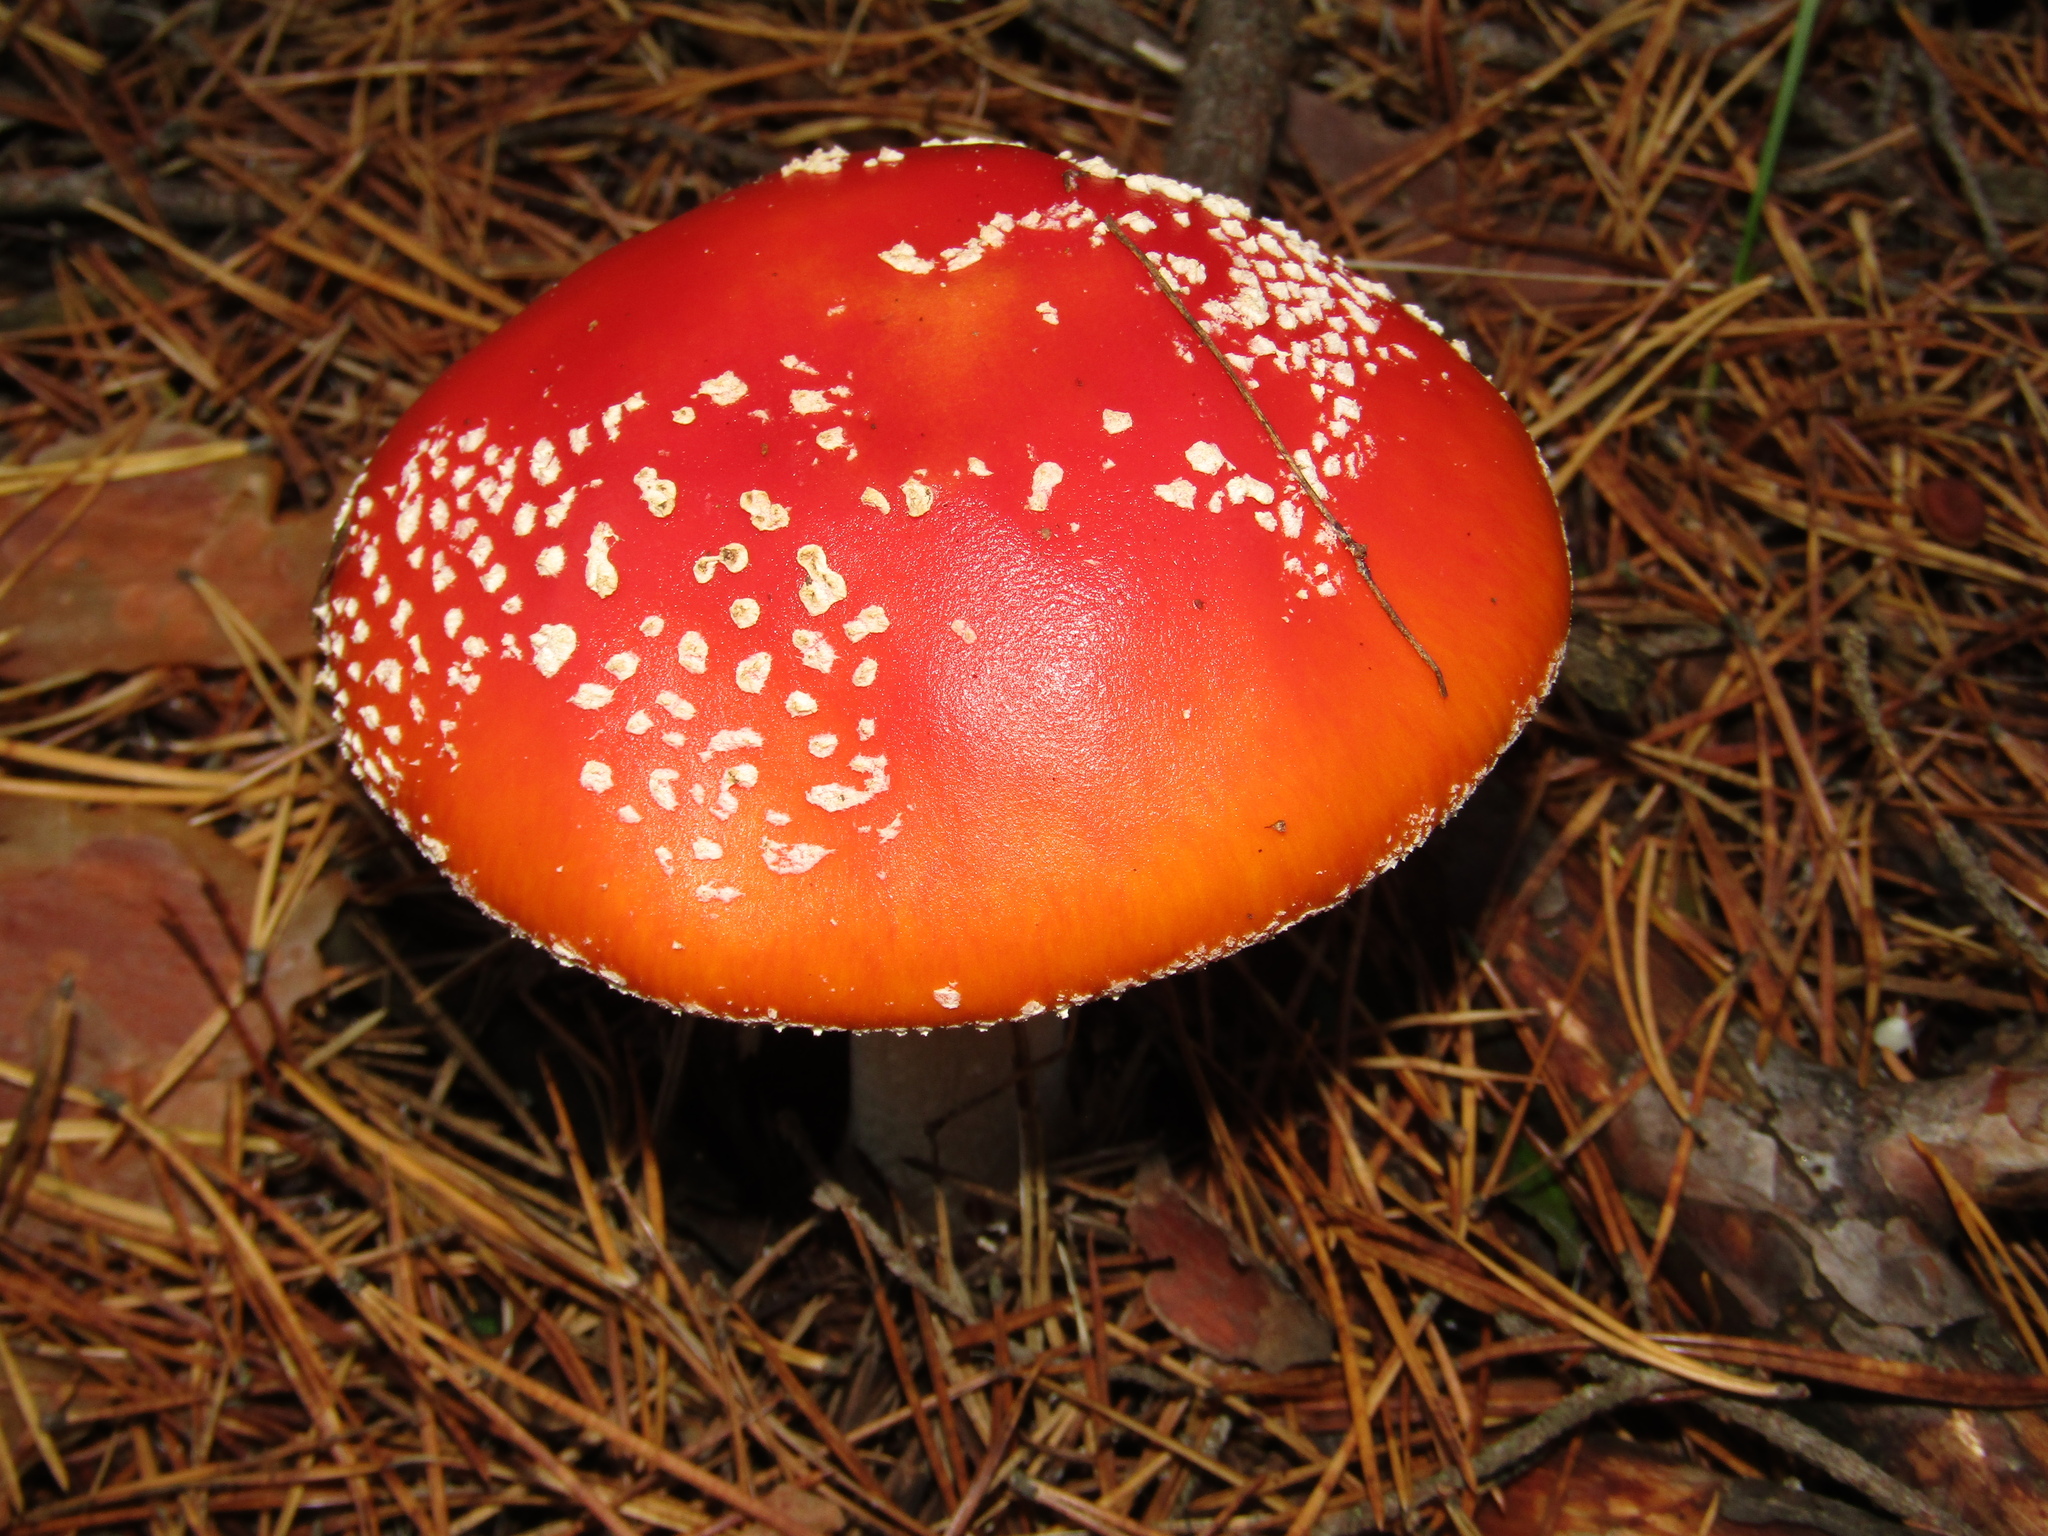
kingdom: Fungi
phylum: Basidiomycota
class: Agaricomycetes
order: Agaricales
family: Amanitaceae
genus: Amanita
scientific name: Amanita muscaria
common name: Fly agaric
